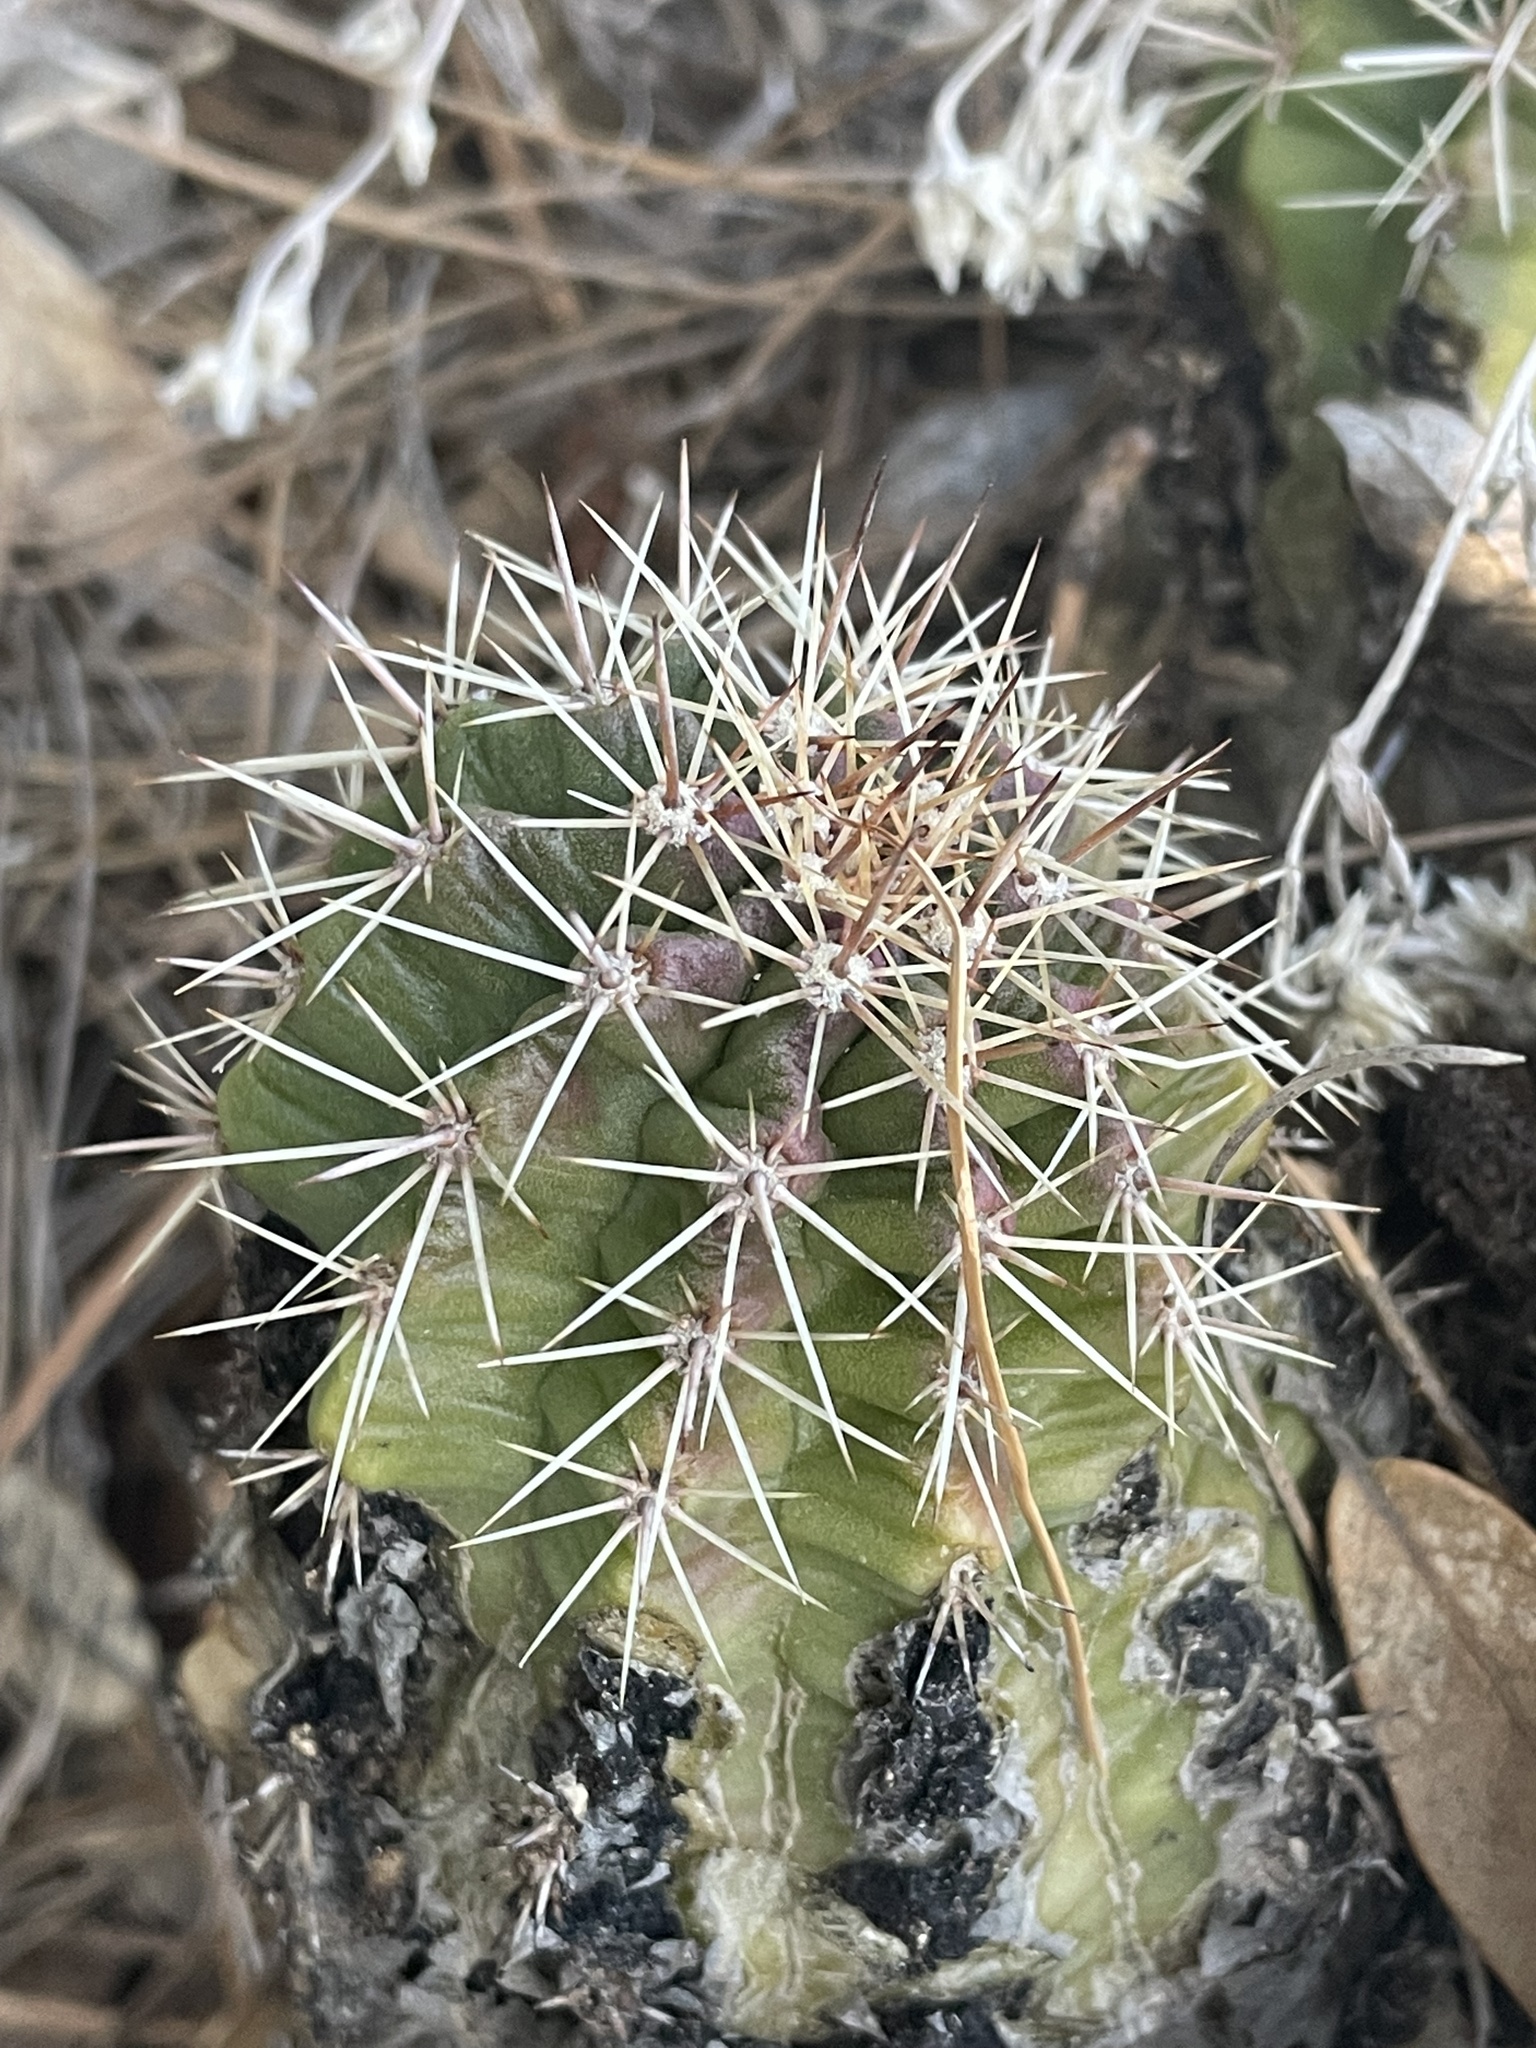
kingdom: Plantae
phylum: Tracheophyta
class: Magnoliopsida
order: Caryophyllales
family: Cactaceae
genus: Echinocereus
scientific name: Echinocereus coccineus
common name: Scarlet hedgehog cactus
